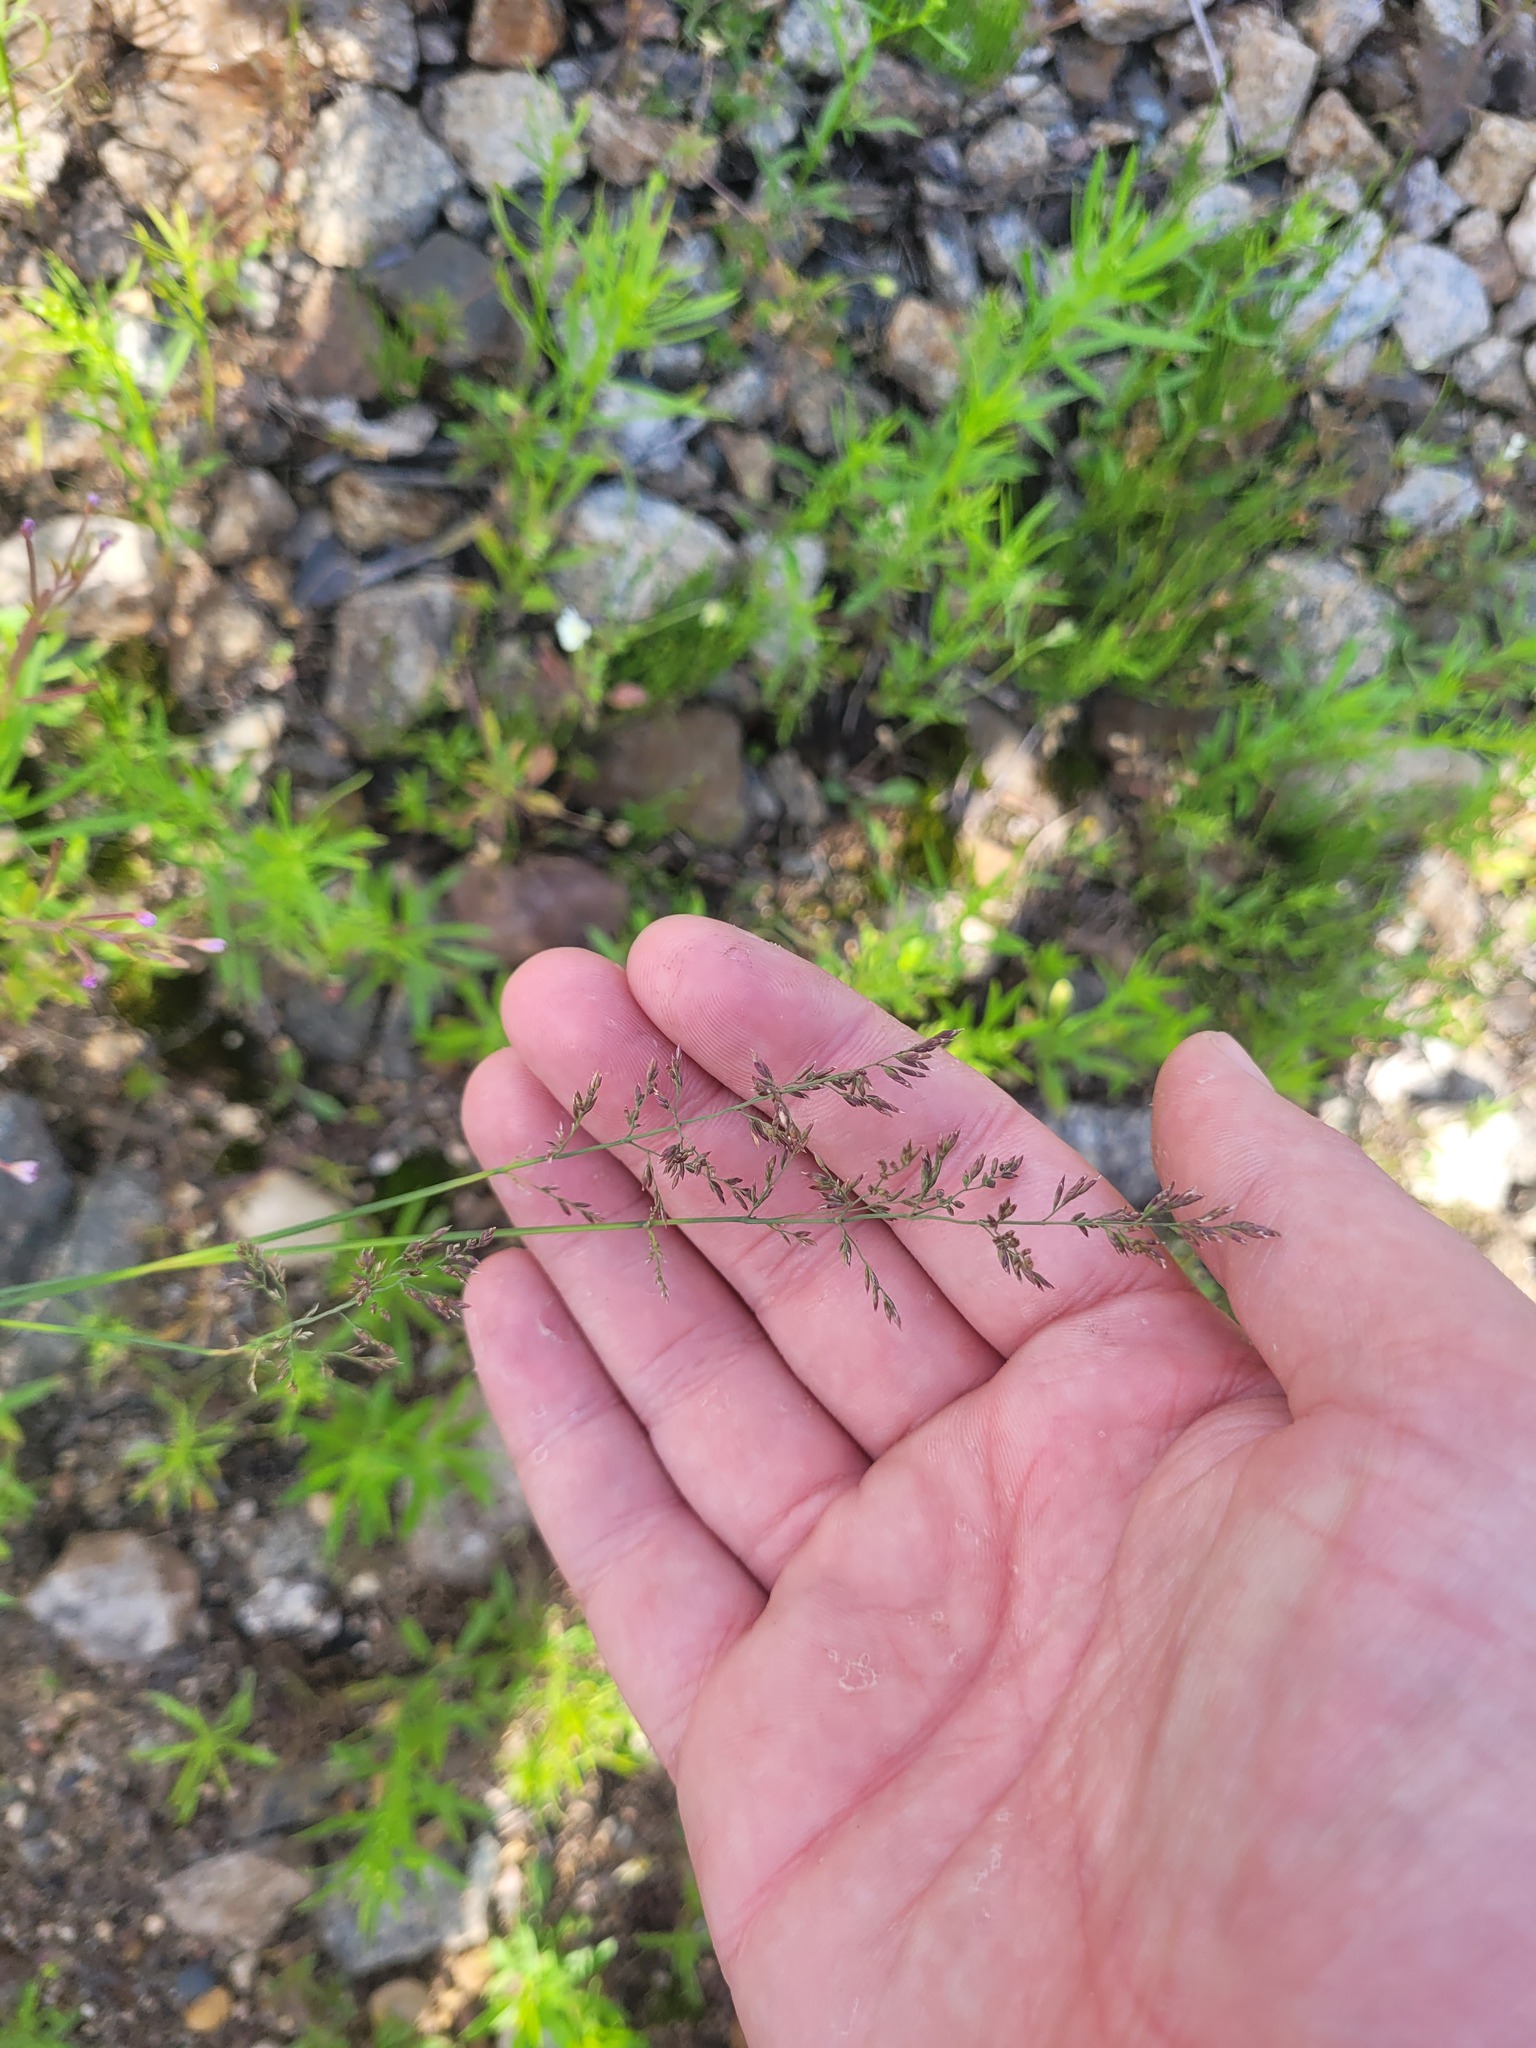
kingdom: Plantae
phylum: Tracheophyta
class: Liliopsida
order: Poales
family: Poaceae
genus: Poa
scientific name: Poa compressa
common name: Canada bluegrass
